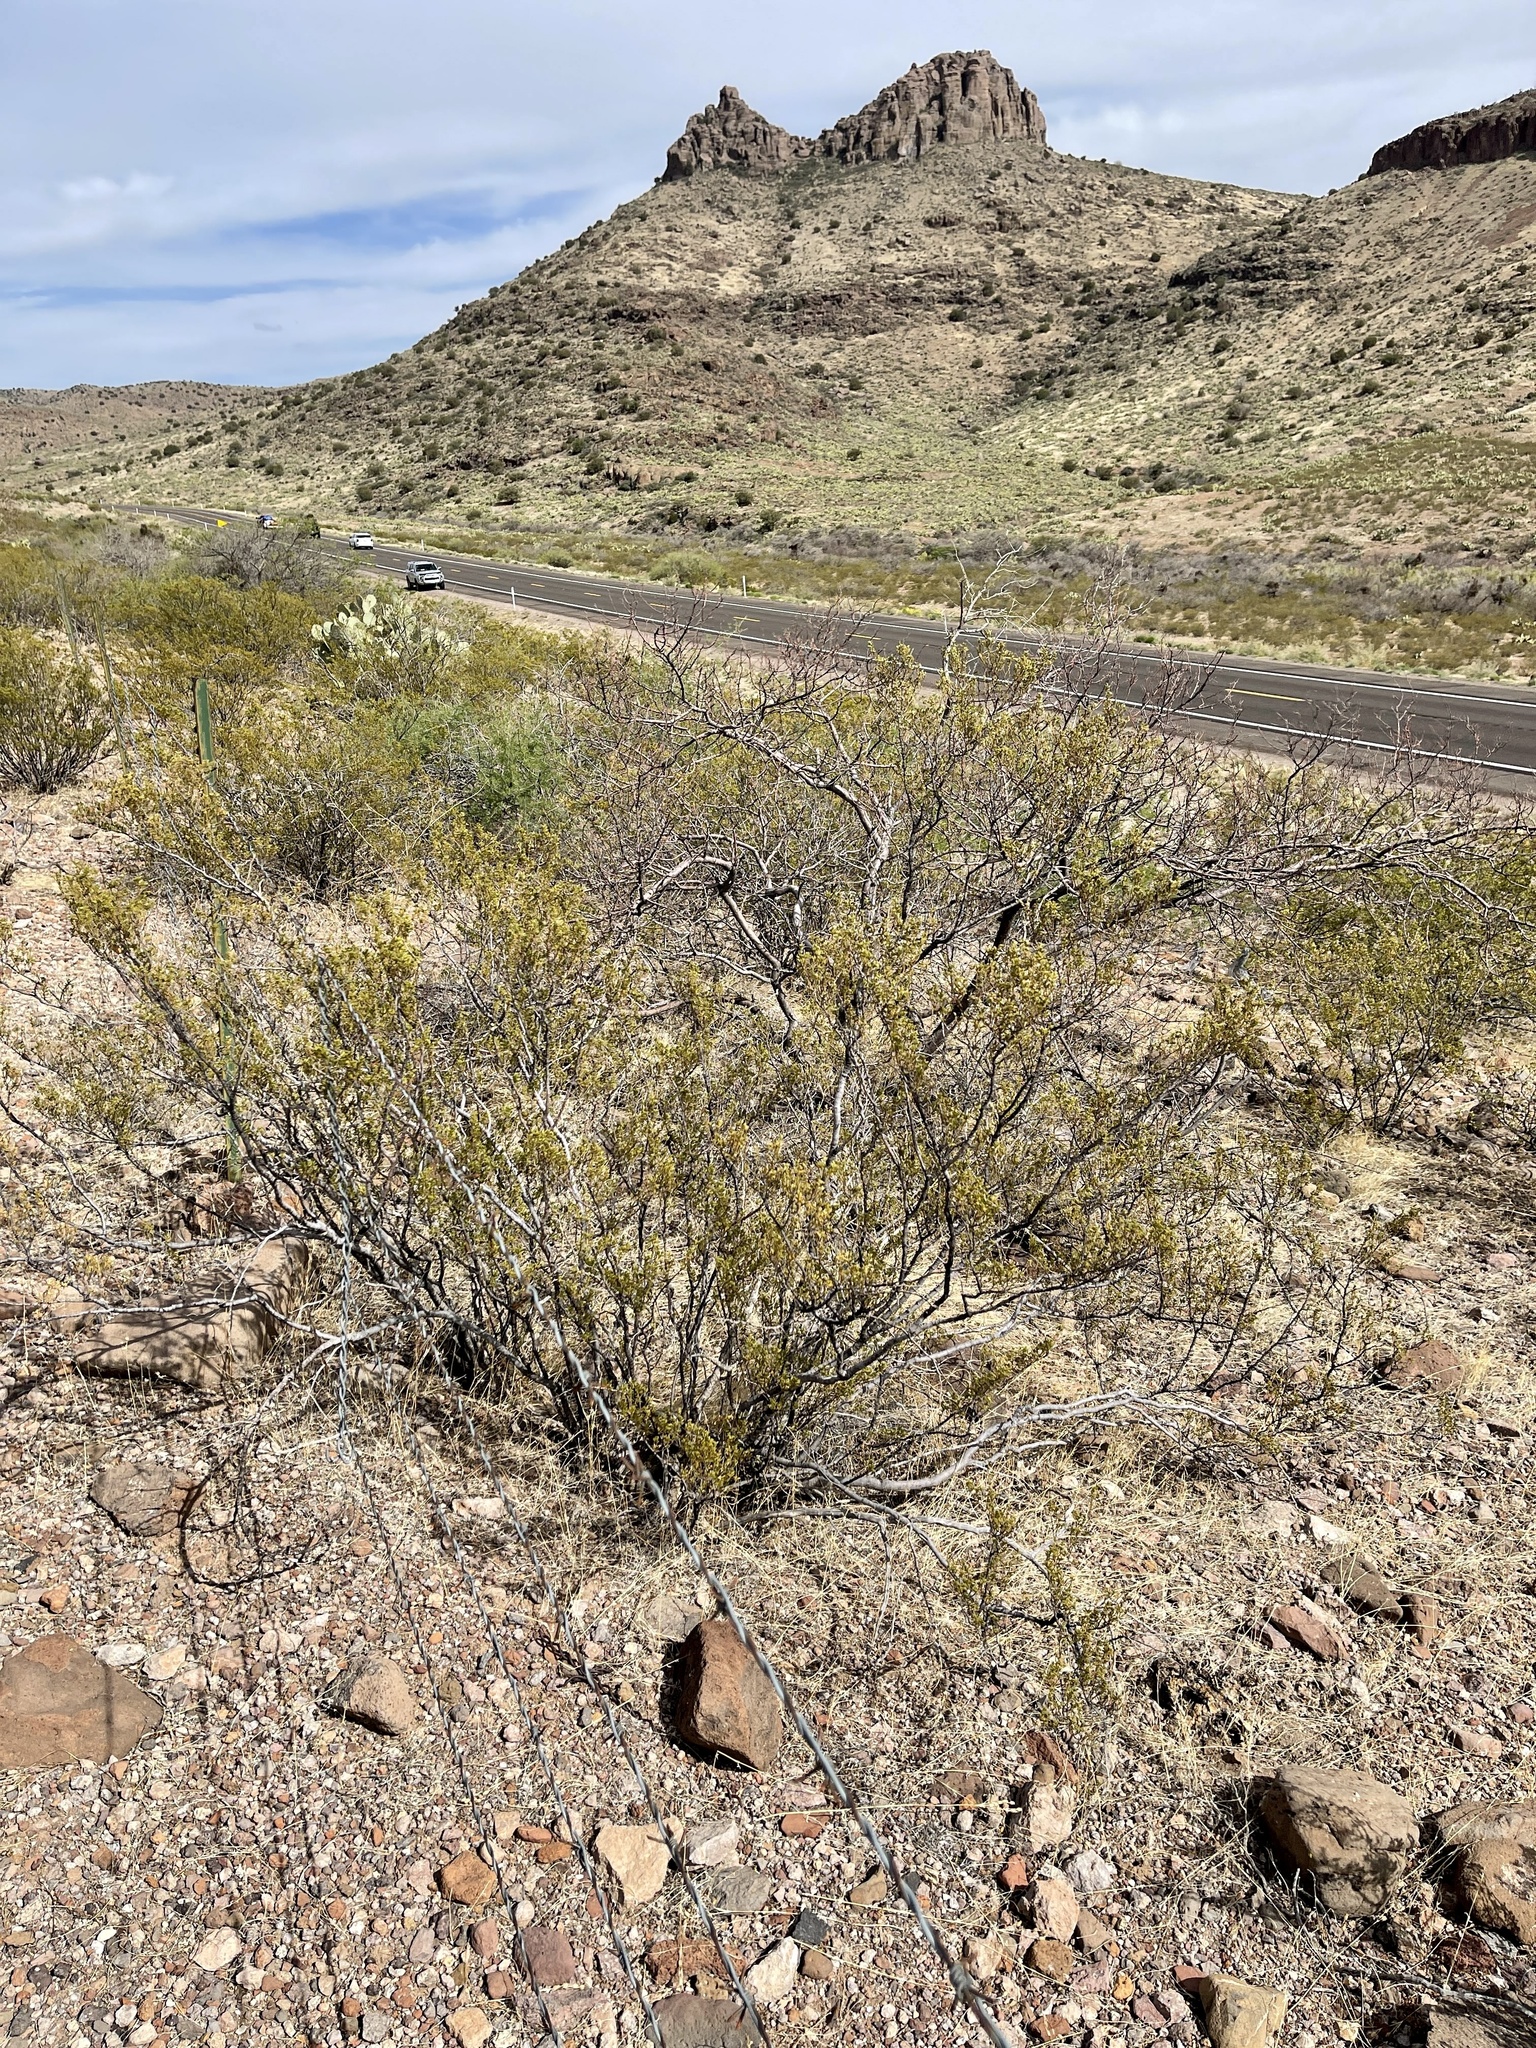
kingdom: Plantae
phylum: Tracheophyta
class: Magnoliopsida
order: Zygophyllales
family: Zygophyllaceae
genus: Larrea
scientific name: Larrea tridentata
